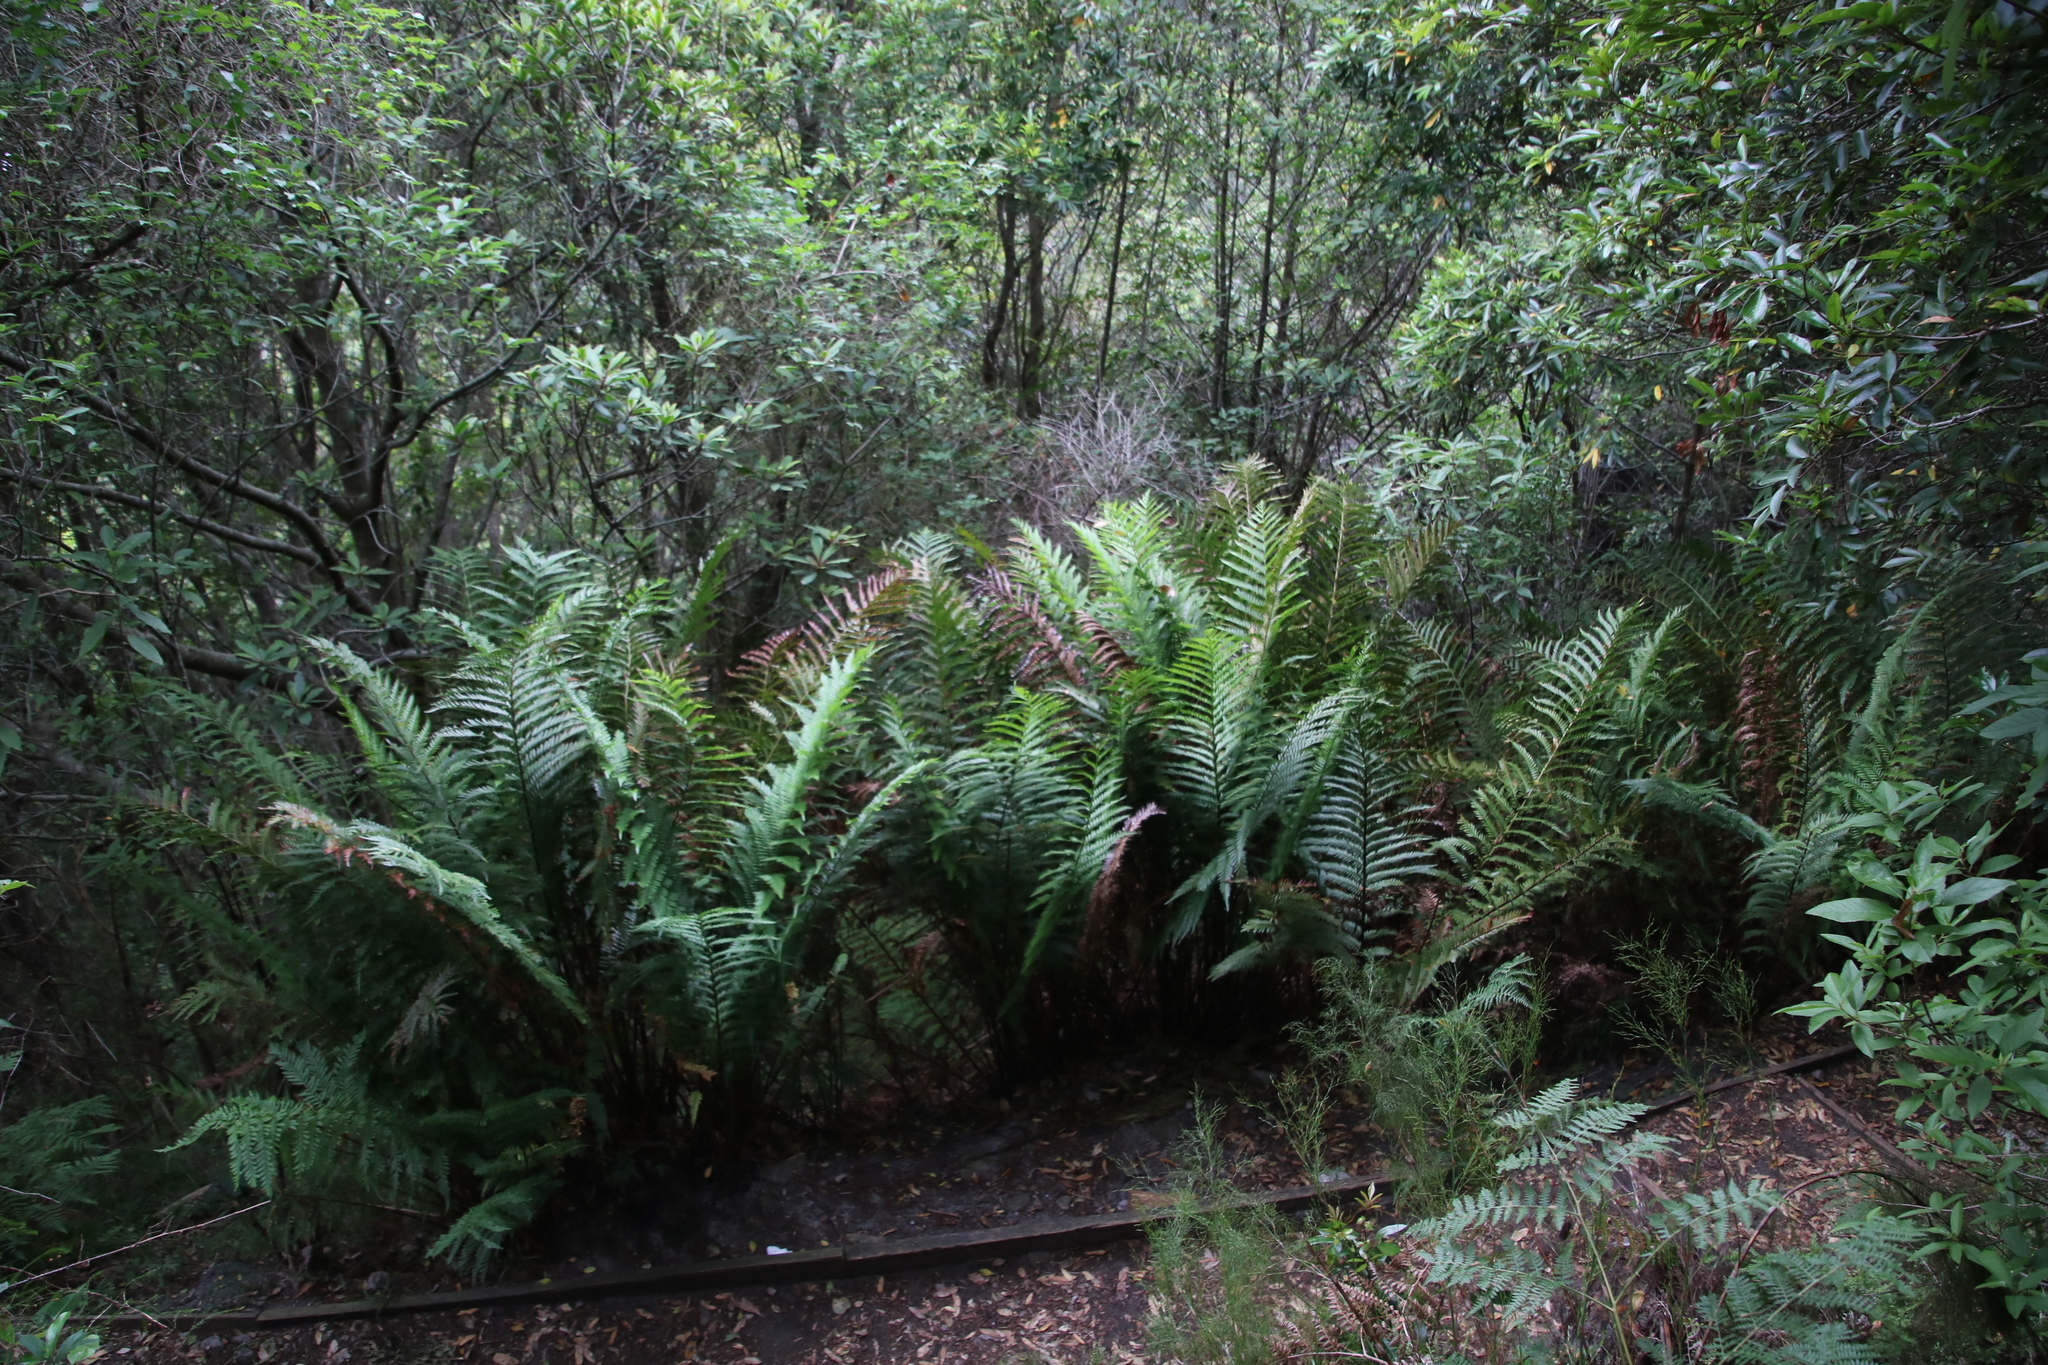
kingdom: Plantae
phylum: Tracheophyta
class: Polypodiopsida
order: Osmundales
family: Osmundaceae
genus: Todea
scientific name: Todea barbara
